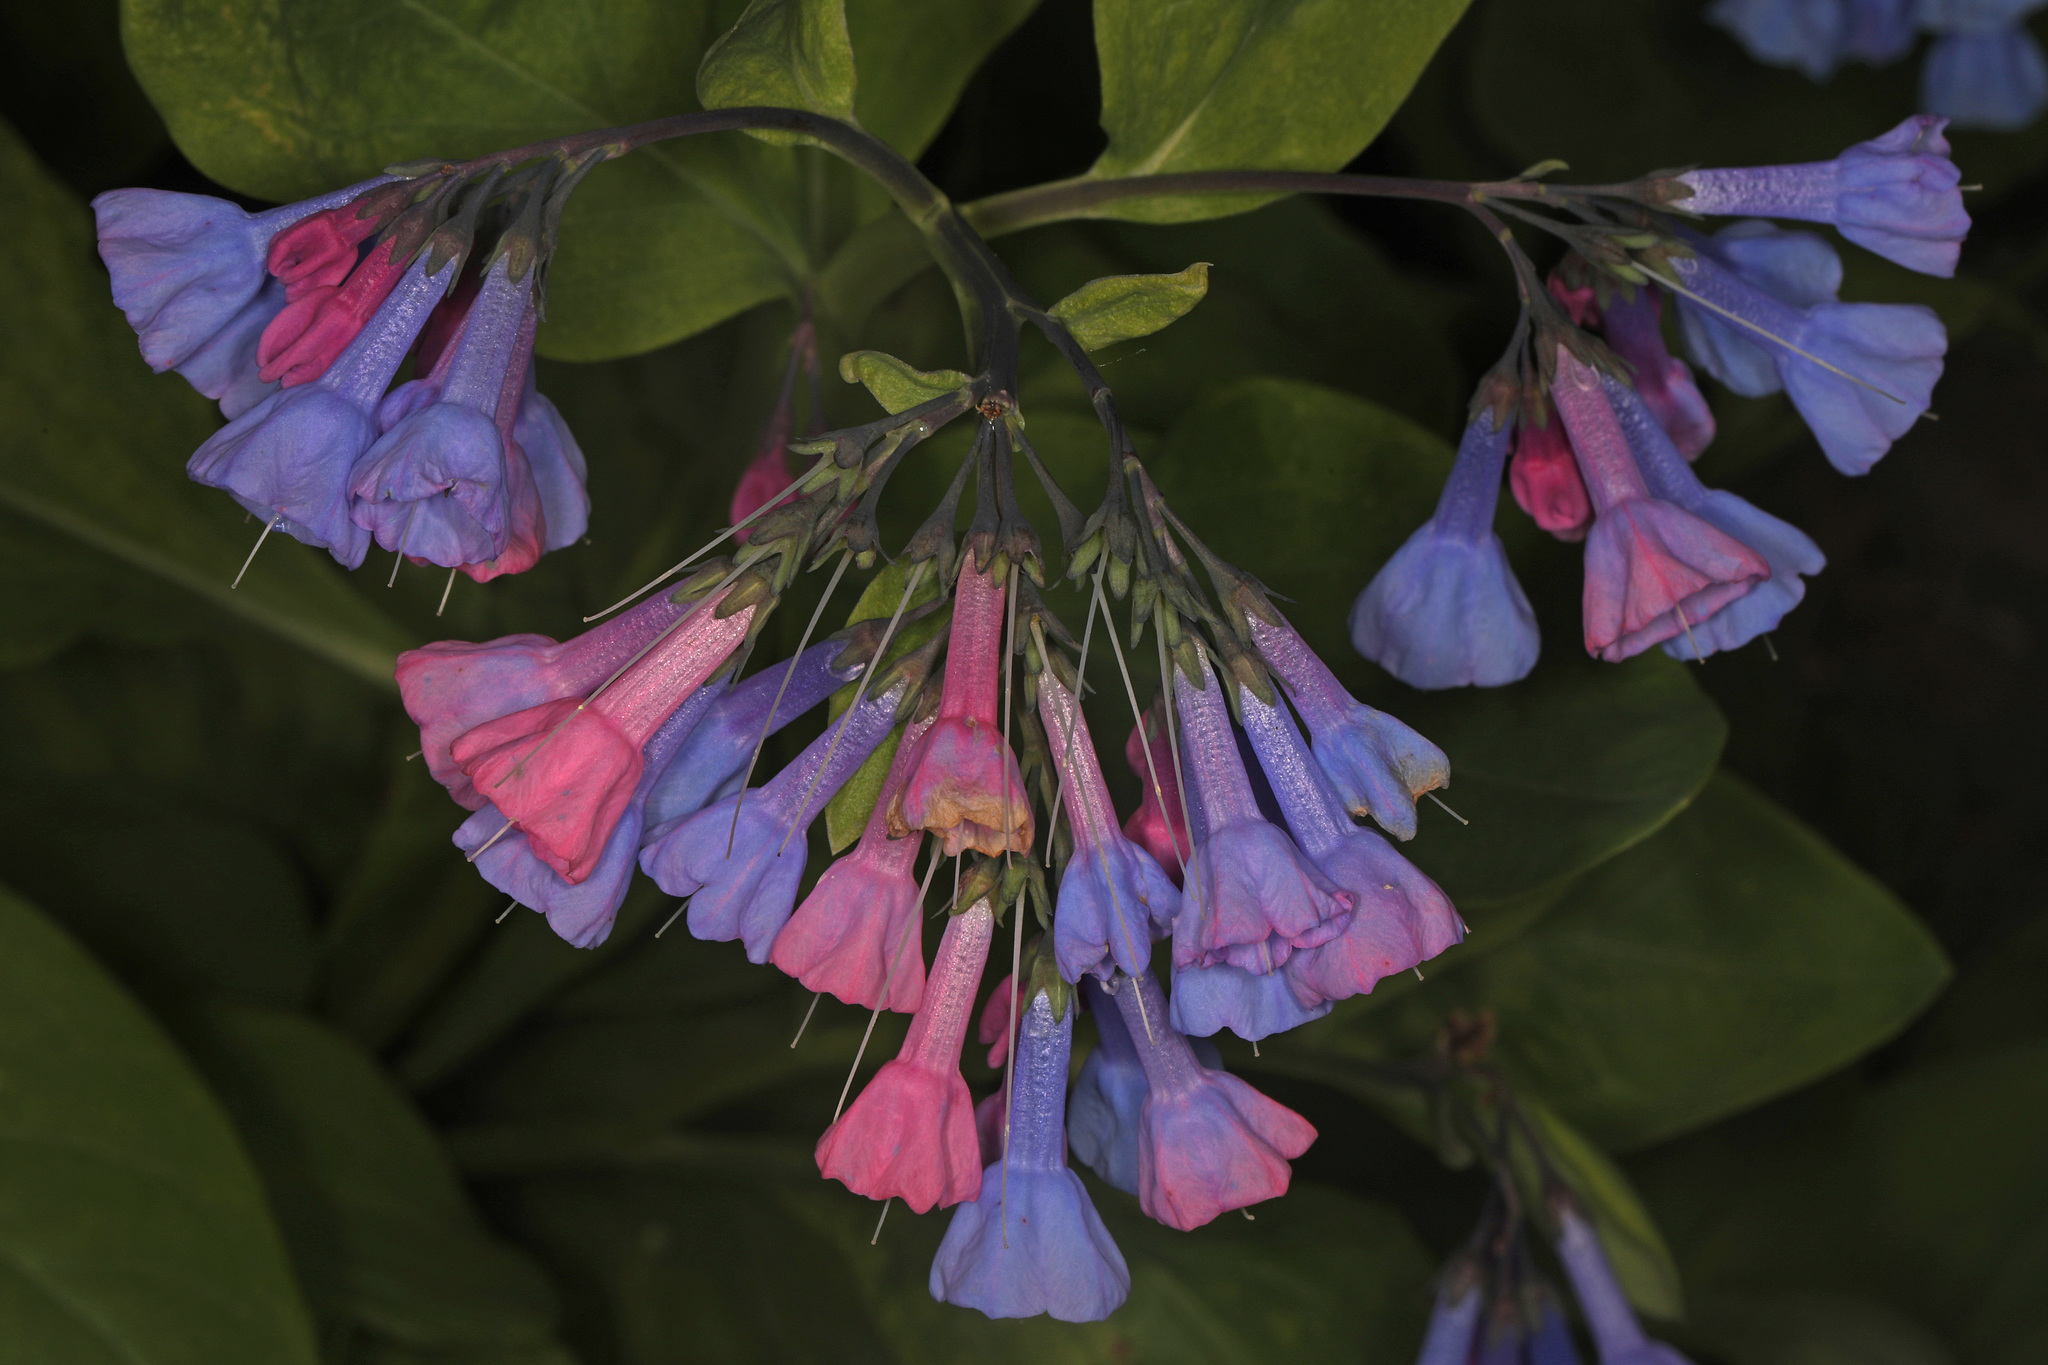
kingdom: Plantae
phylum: Tracheophyta
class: Magnoliopsida
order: Boraginales
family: Boraginaceae
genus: Mertensia
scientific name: Mertensia virginica
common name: Virginia bluebells
